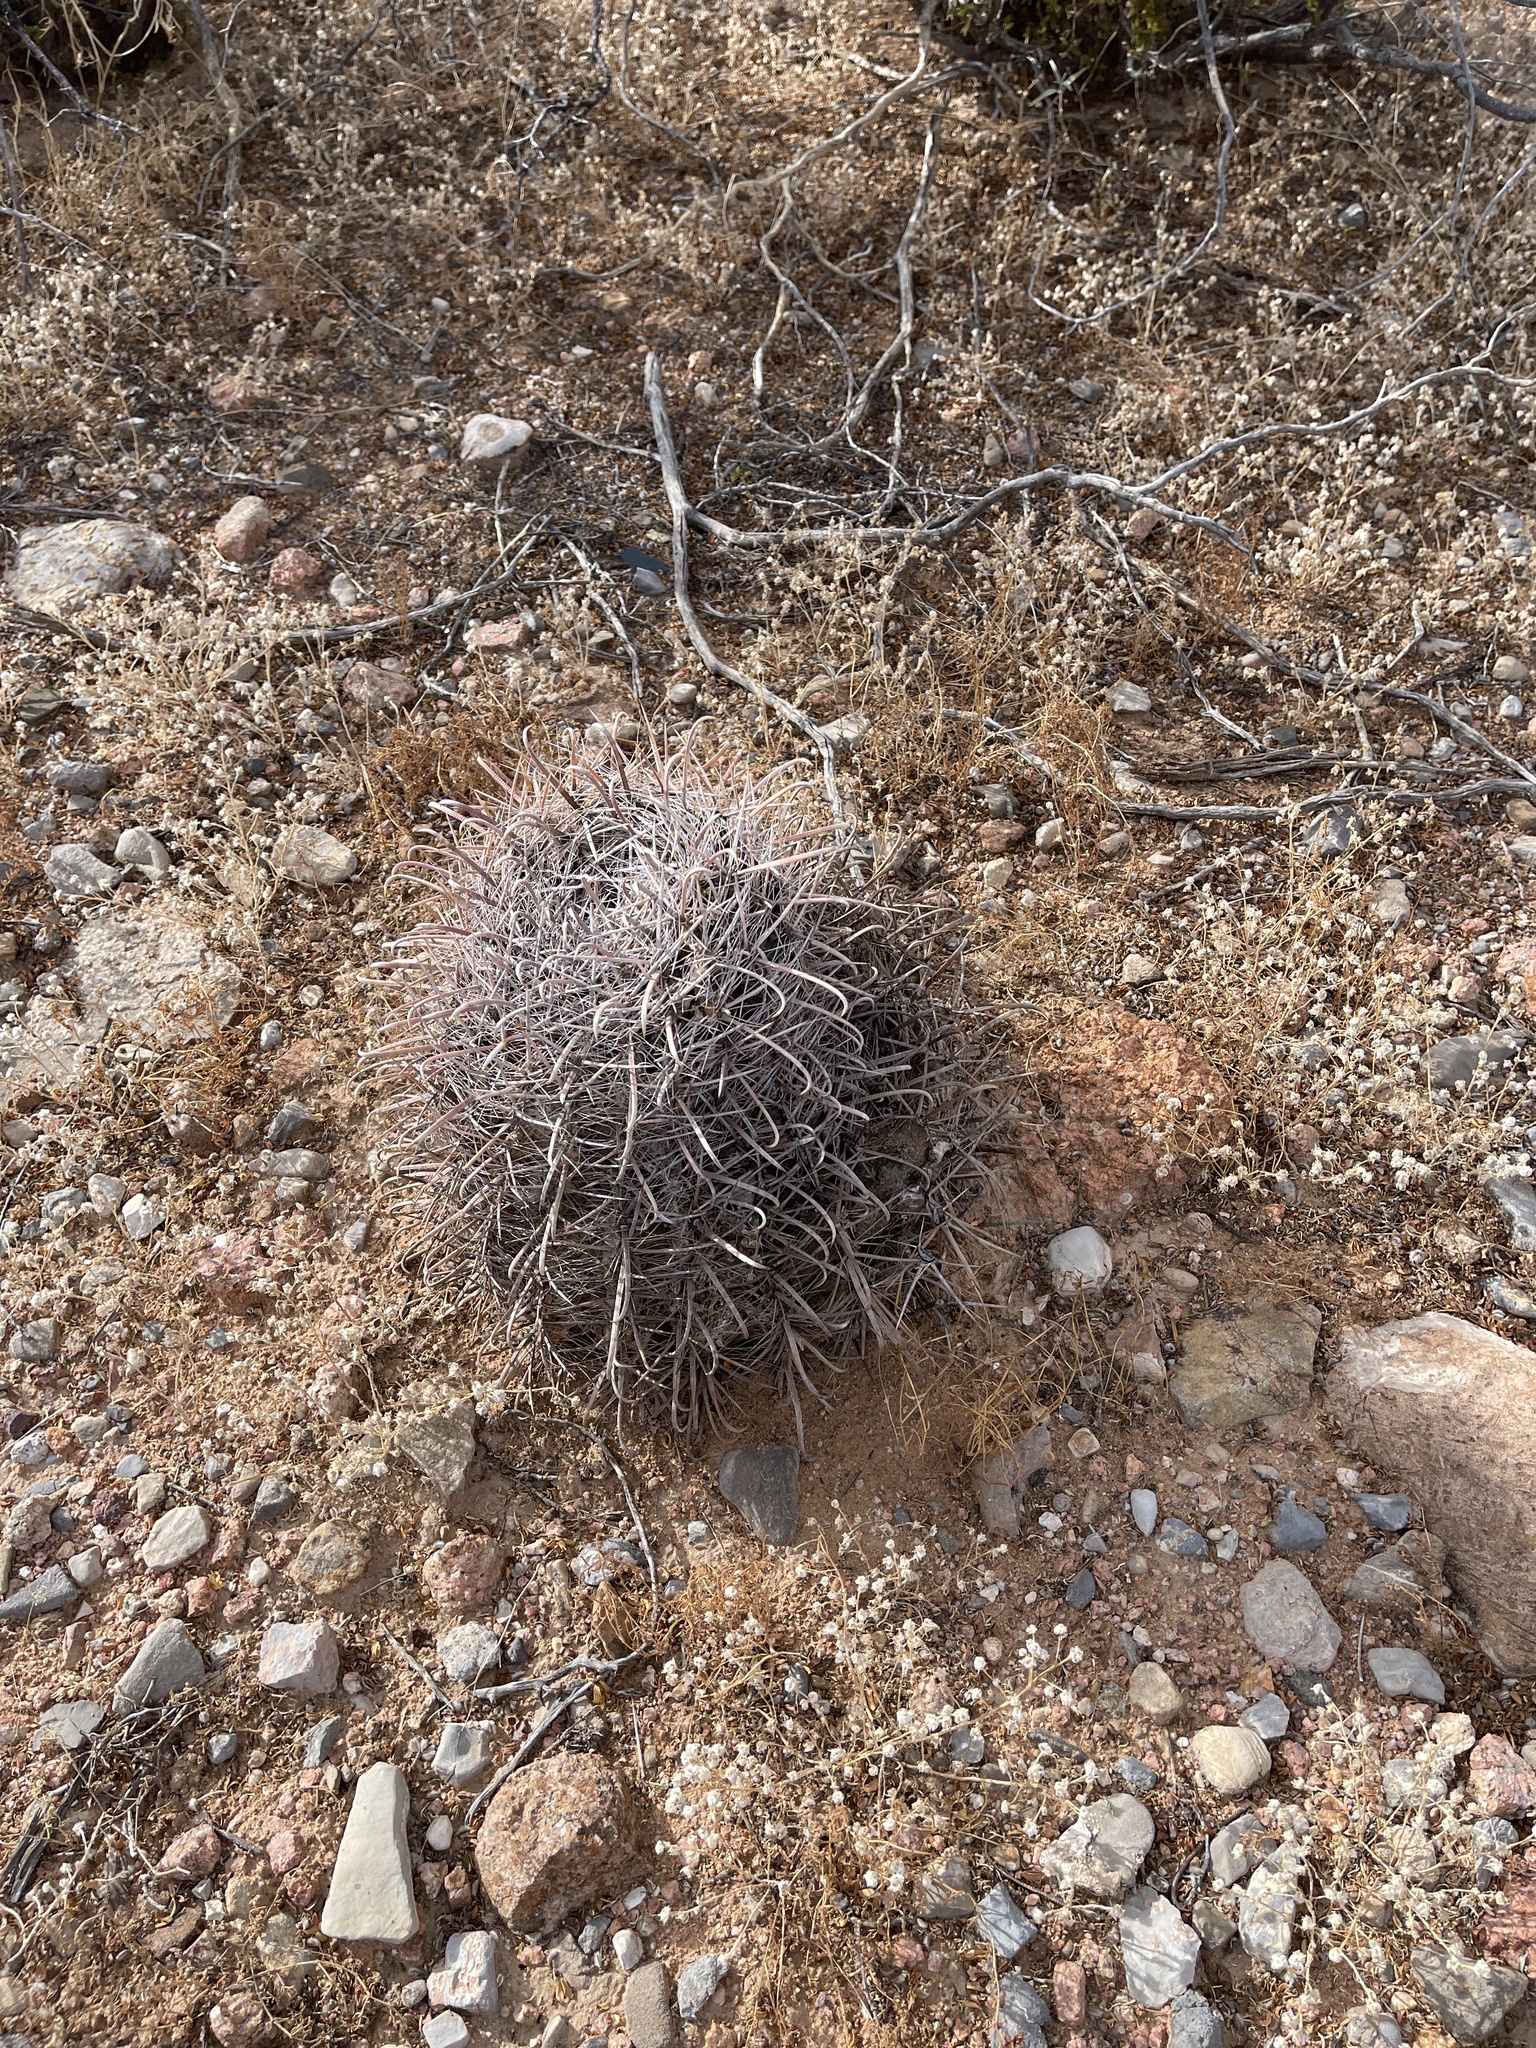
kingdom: Plantae
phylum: Tracheophyta
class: Magnoliopsida
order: Caryophyllales
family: Cactaceae
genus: Ferocactus
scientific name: Ferocactus wislizeni
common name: Candy barrel cactus
